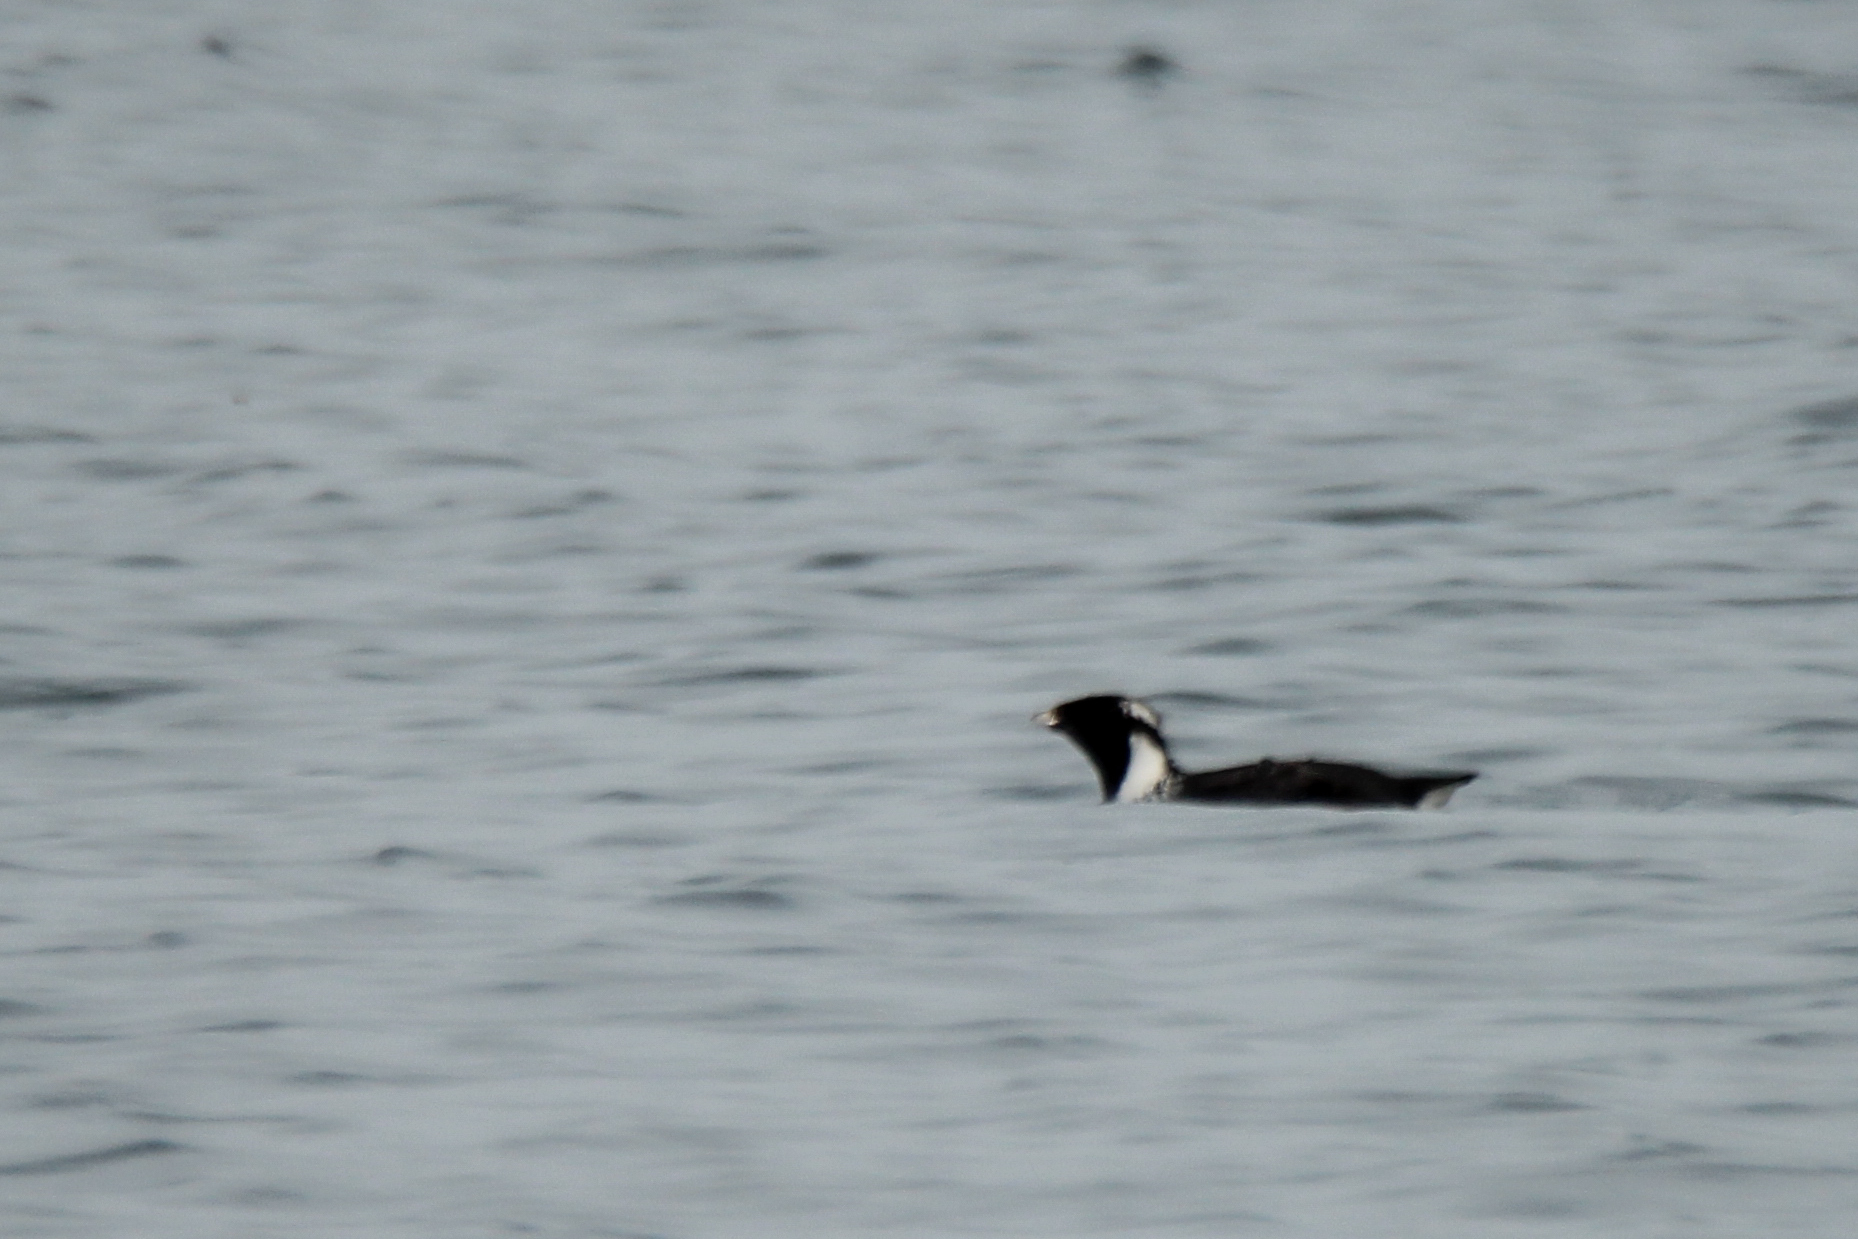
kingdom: Animalia
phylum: Chordata
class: Aves
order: Charadriiformes
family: Alcidae
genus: Synthliboramphus
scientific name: Synthliboramphus antiquus
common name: Ancient murrelet
